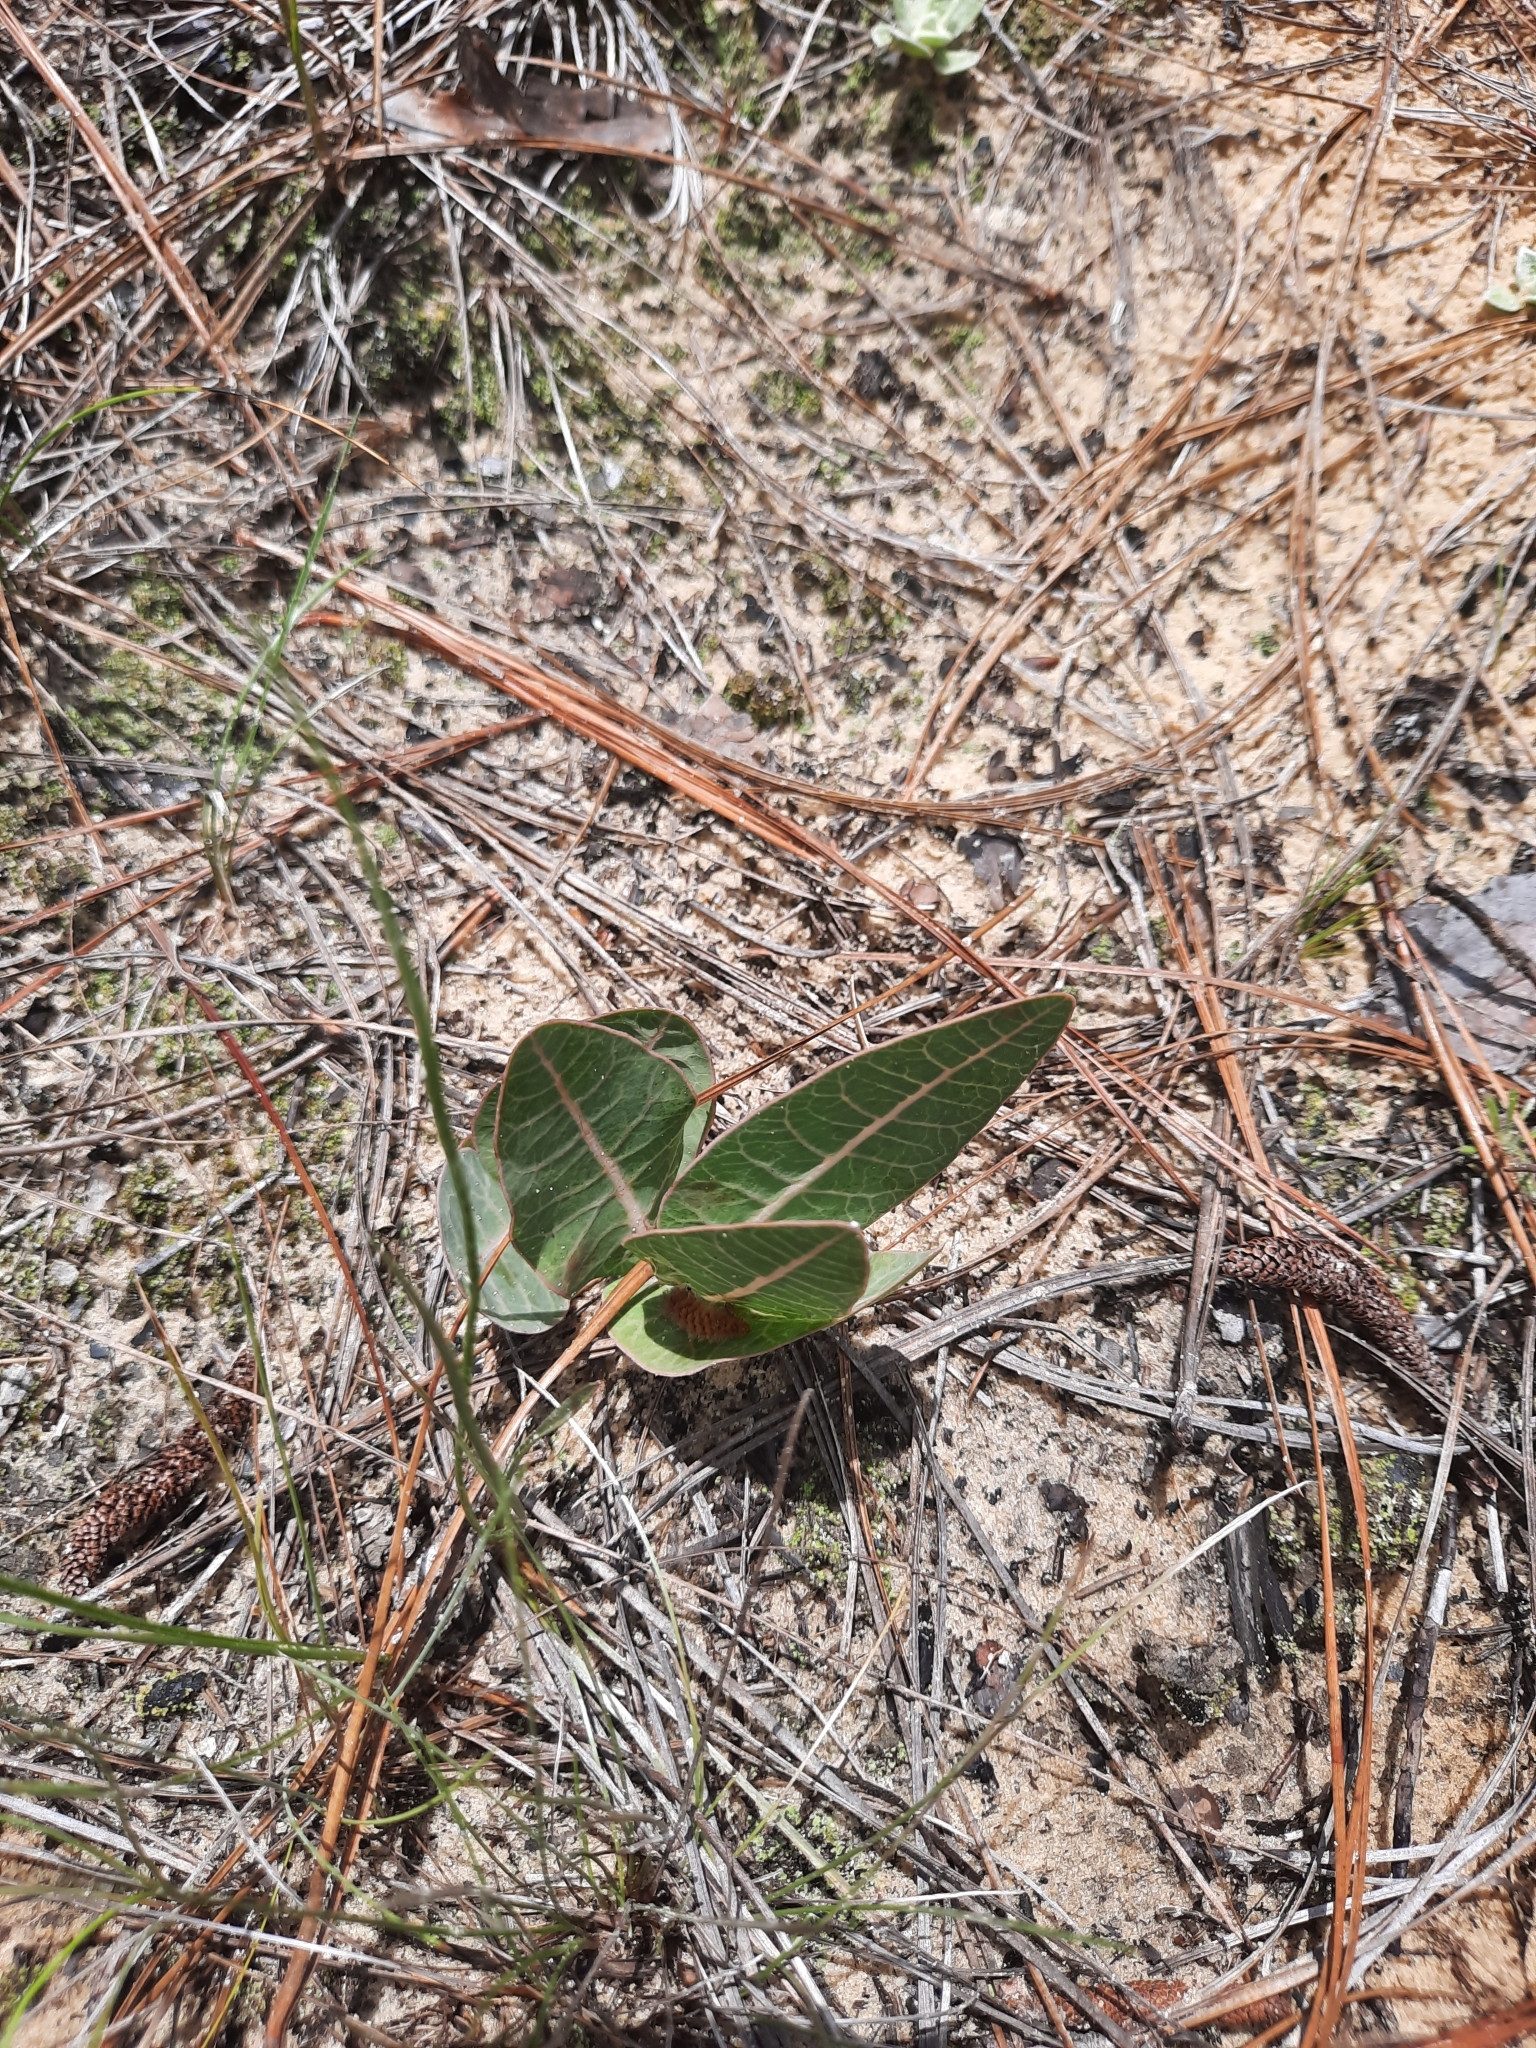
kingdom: Plantae
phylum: Tracheophyta
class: Magnoliopsida
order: Gentianales
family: Apocynaceae
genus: Asclepias
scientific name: Asclepias humistrata
